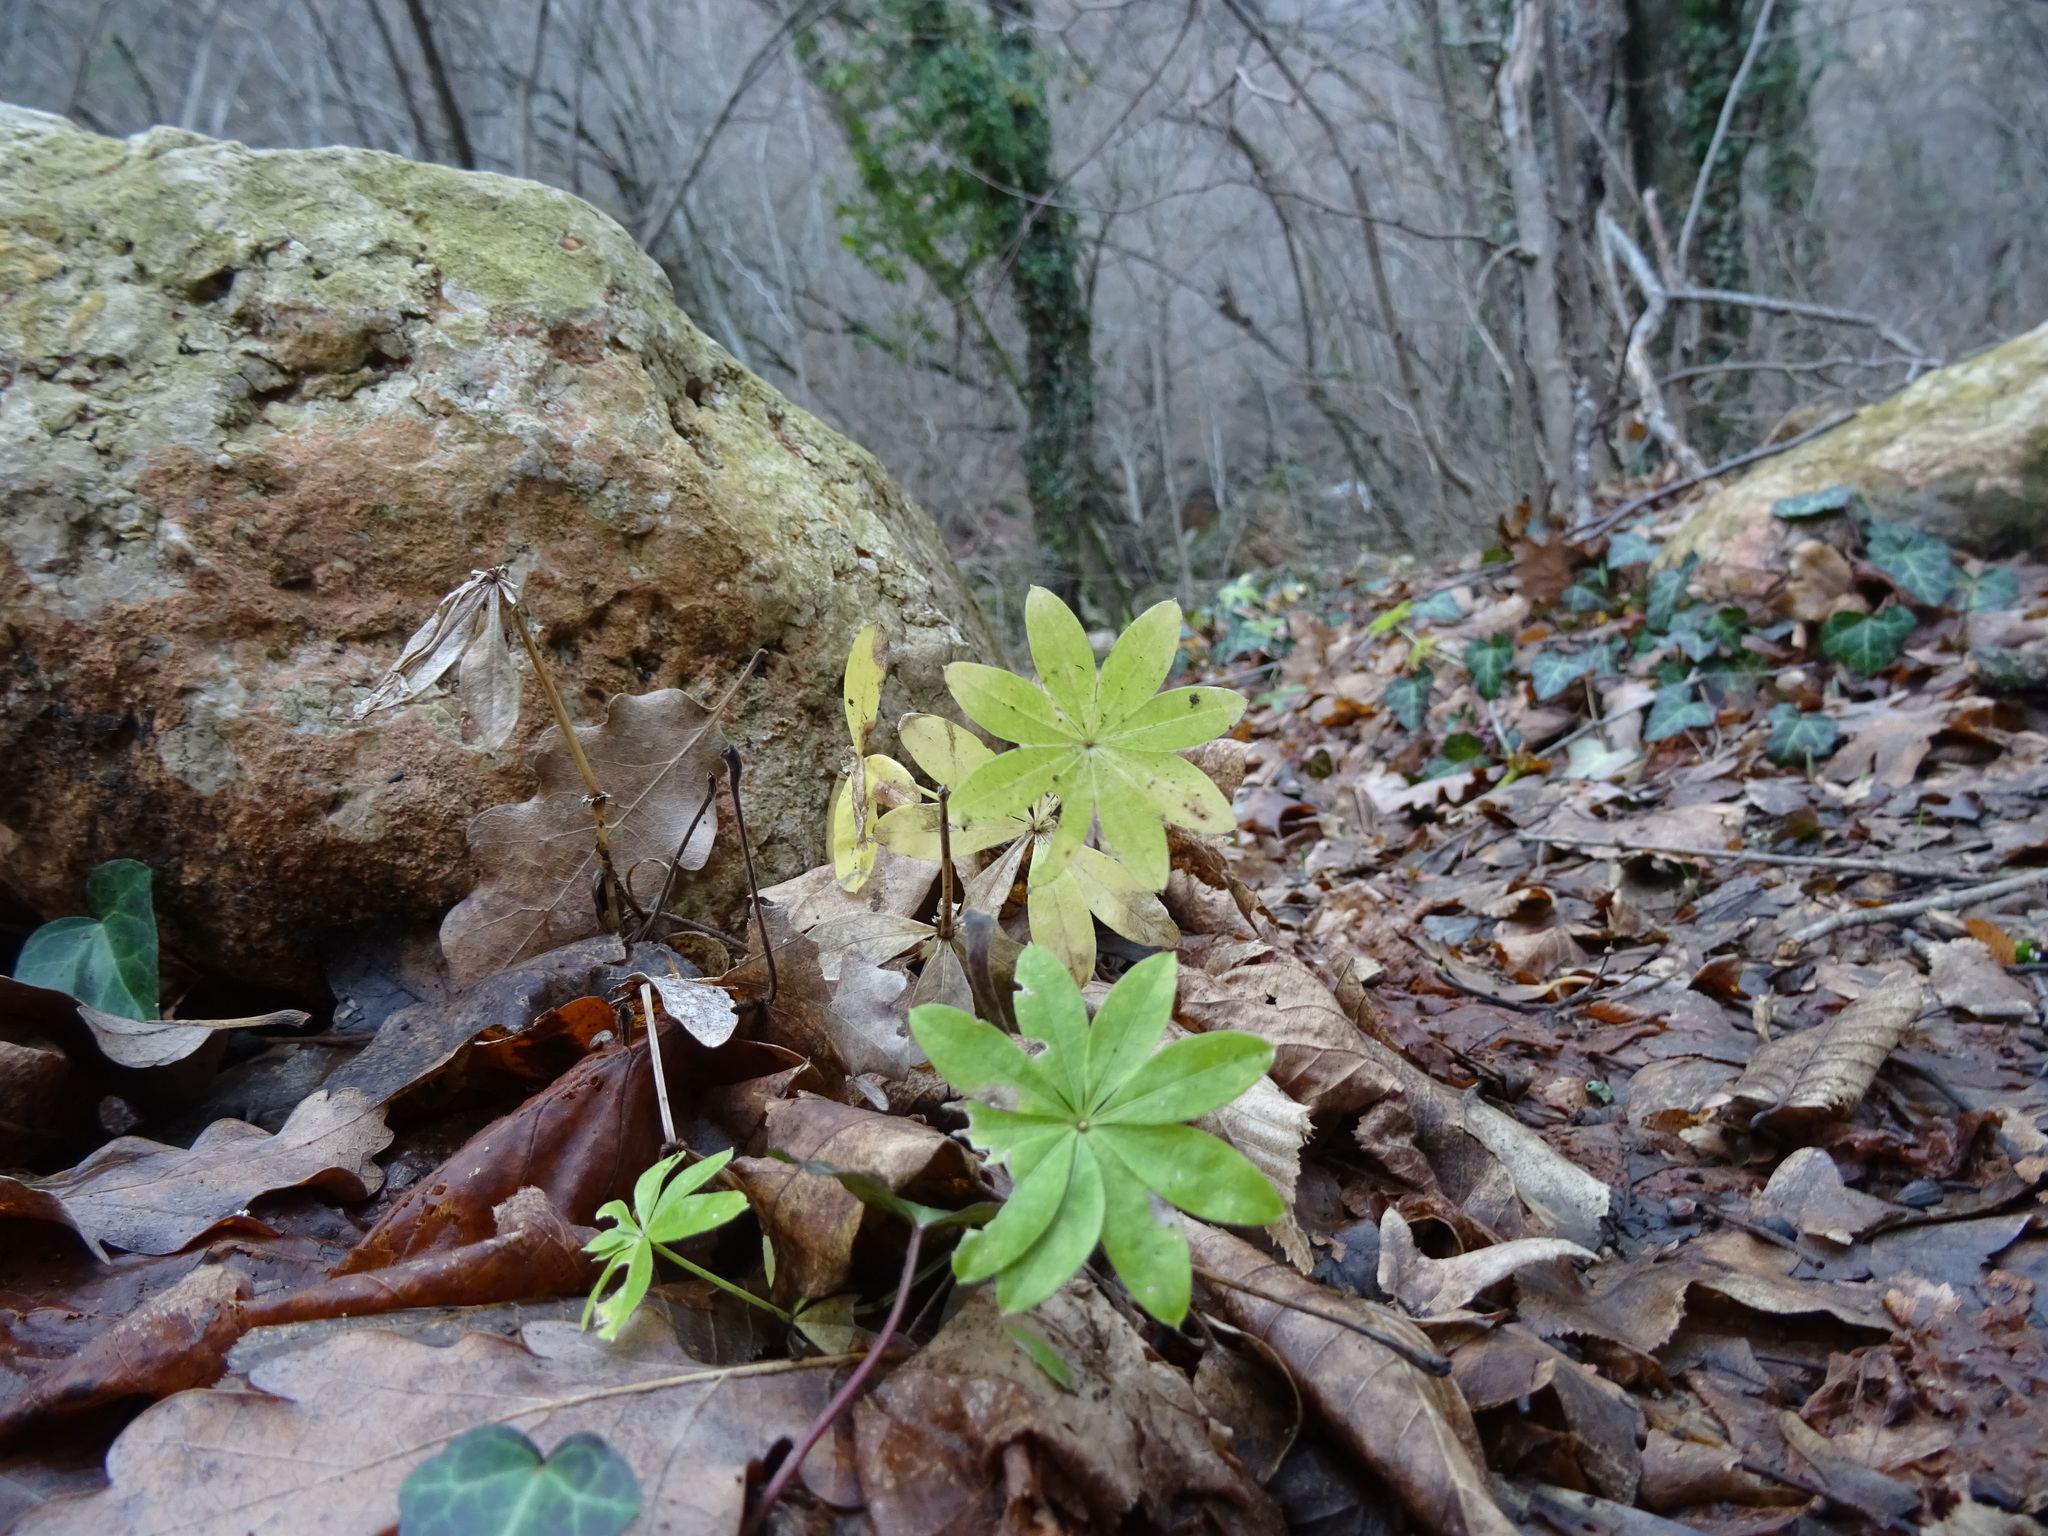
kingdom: Plantae
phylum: Tracheophyta
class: Magnoliopsida
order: Gentianales
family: Rubiaceae
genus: Galium
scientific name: Galium odoratum
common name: Sweet woodruff
